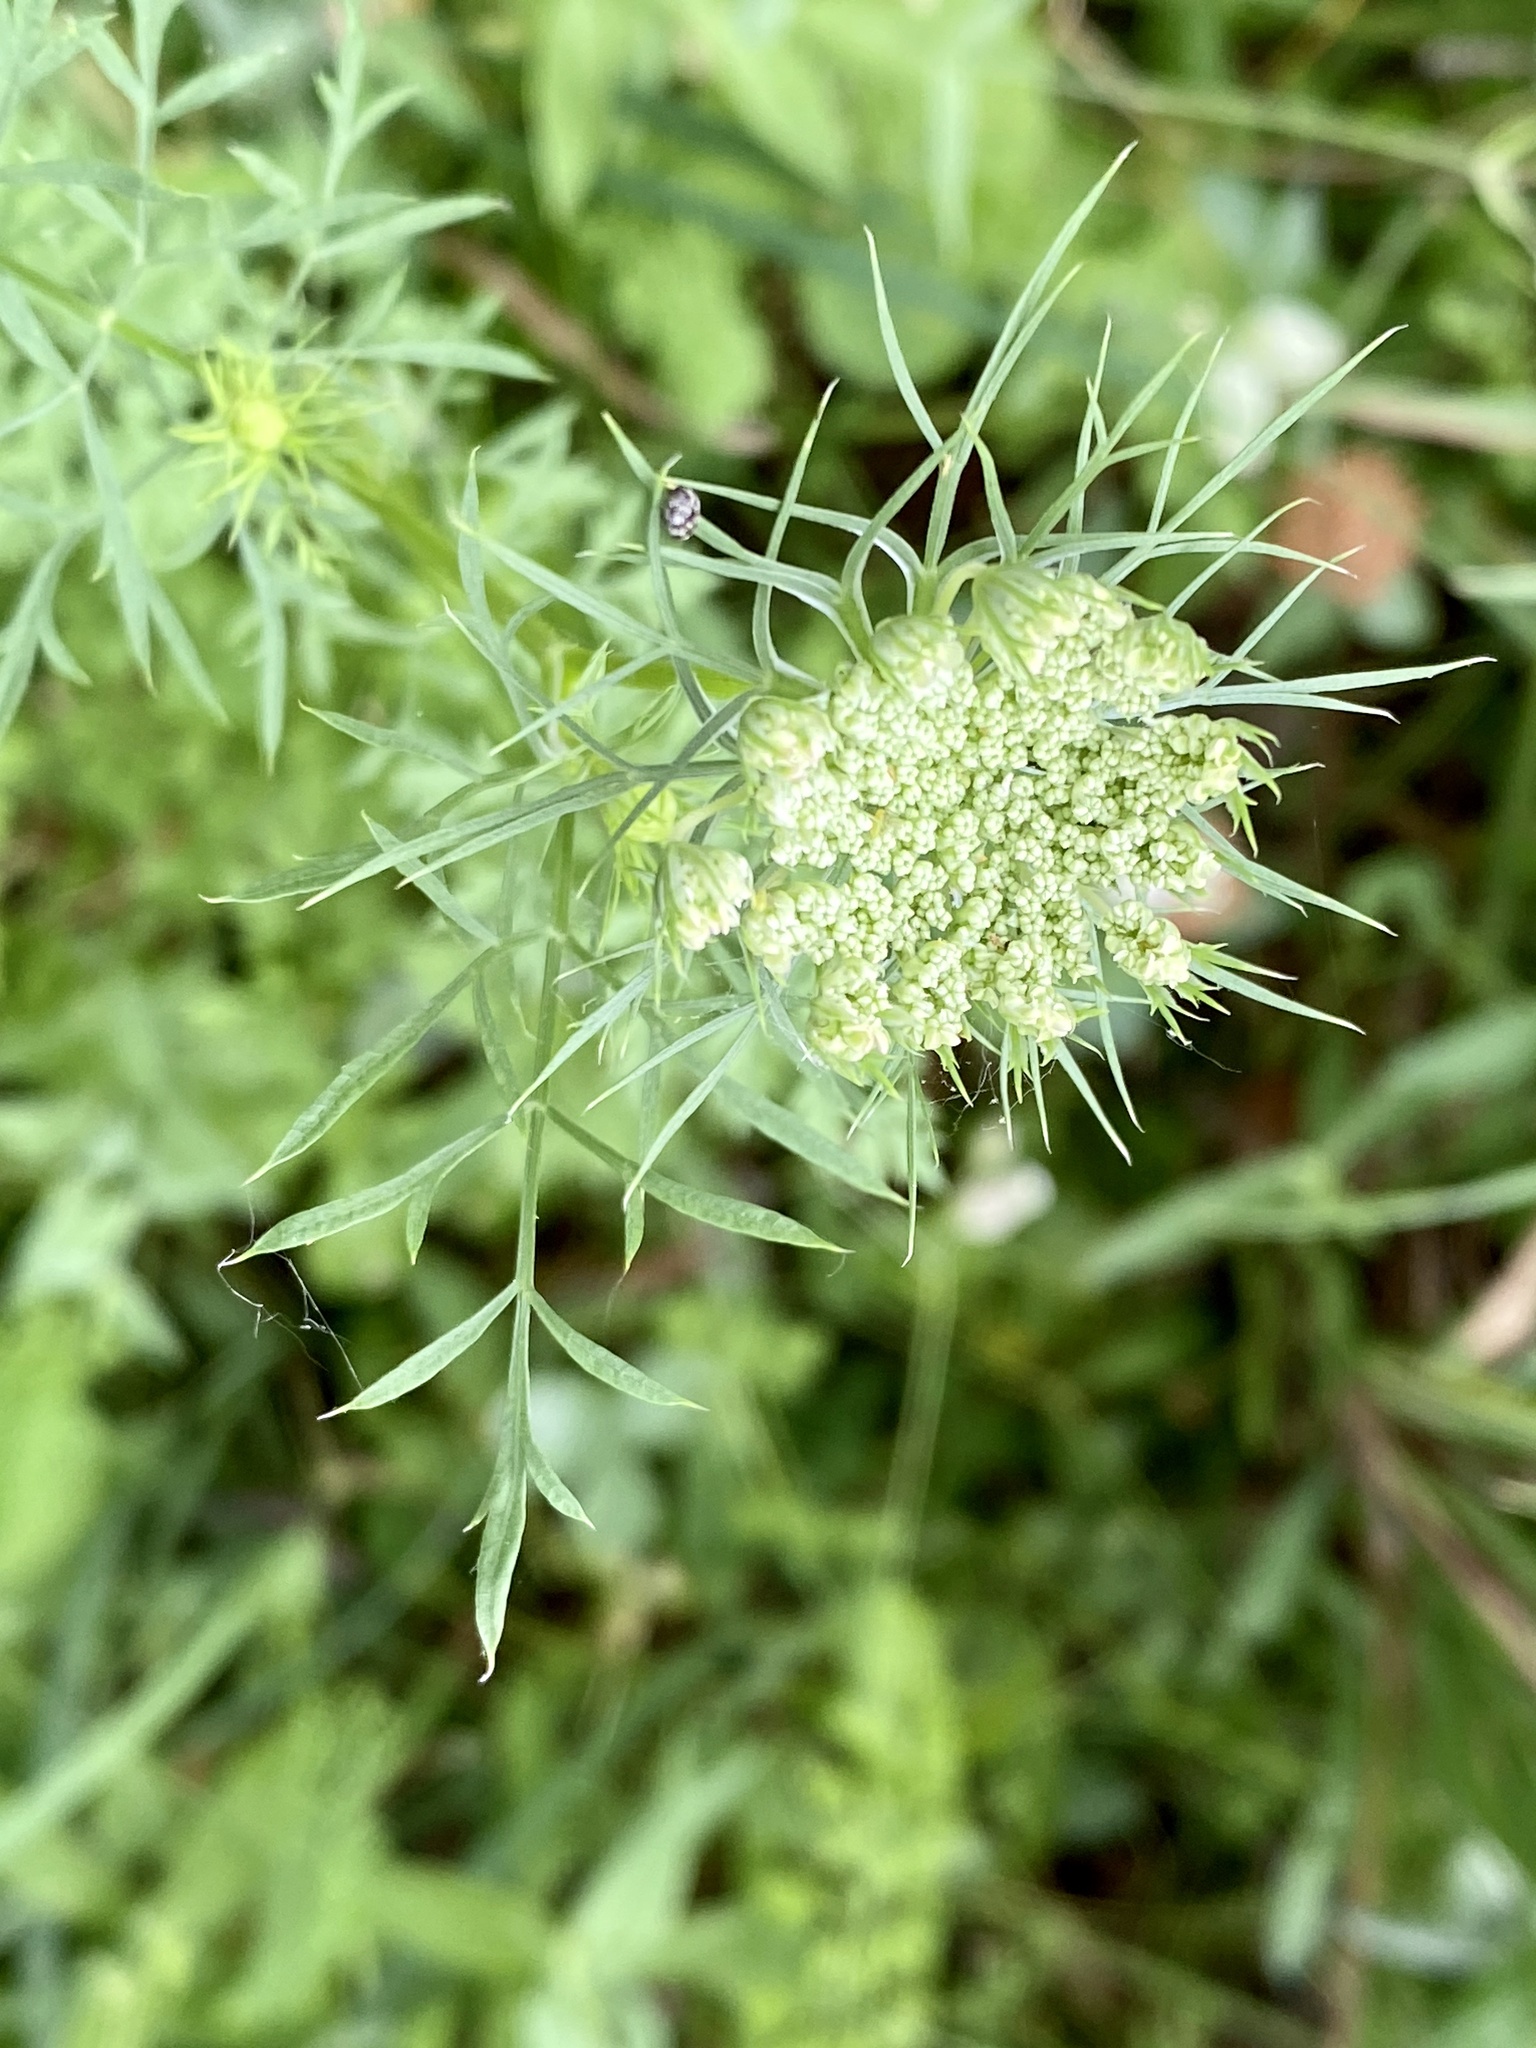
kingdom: Plantae
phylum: Tracheophyta
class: Magnoliopsida
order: Apiales
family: Apiaceae
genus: Daucus
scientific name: Daucus carota
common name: Wild carrot
